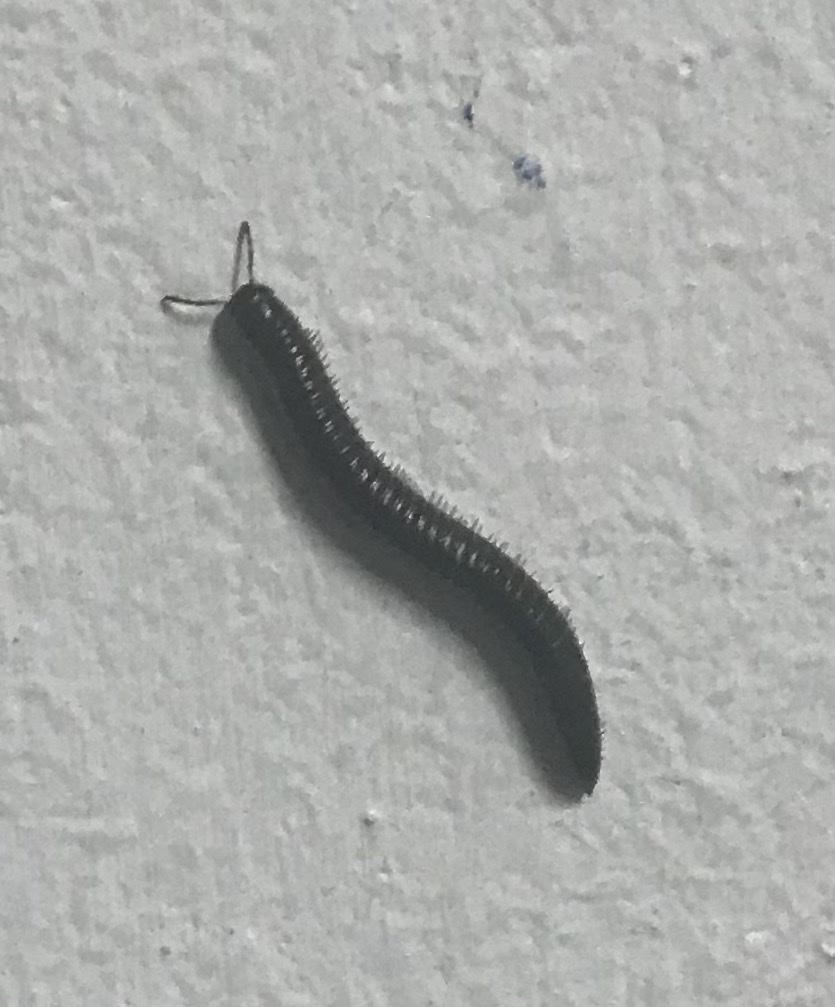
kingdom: Animalia
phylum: Arthropoda
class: Diplopoda
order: Julida
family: Julidae
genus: Ommatoiulus
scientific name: Ommatoiulus moreleti
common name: Portuguese millipede
